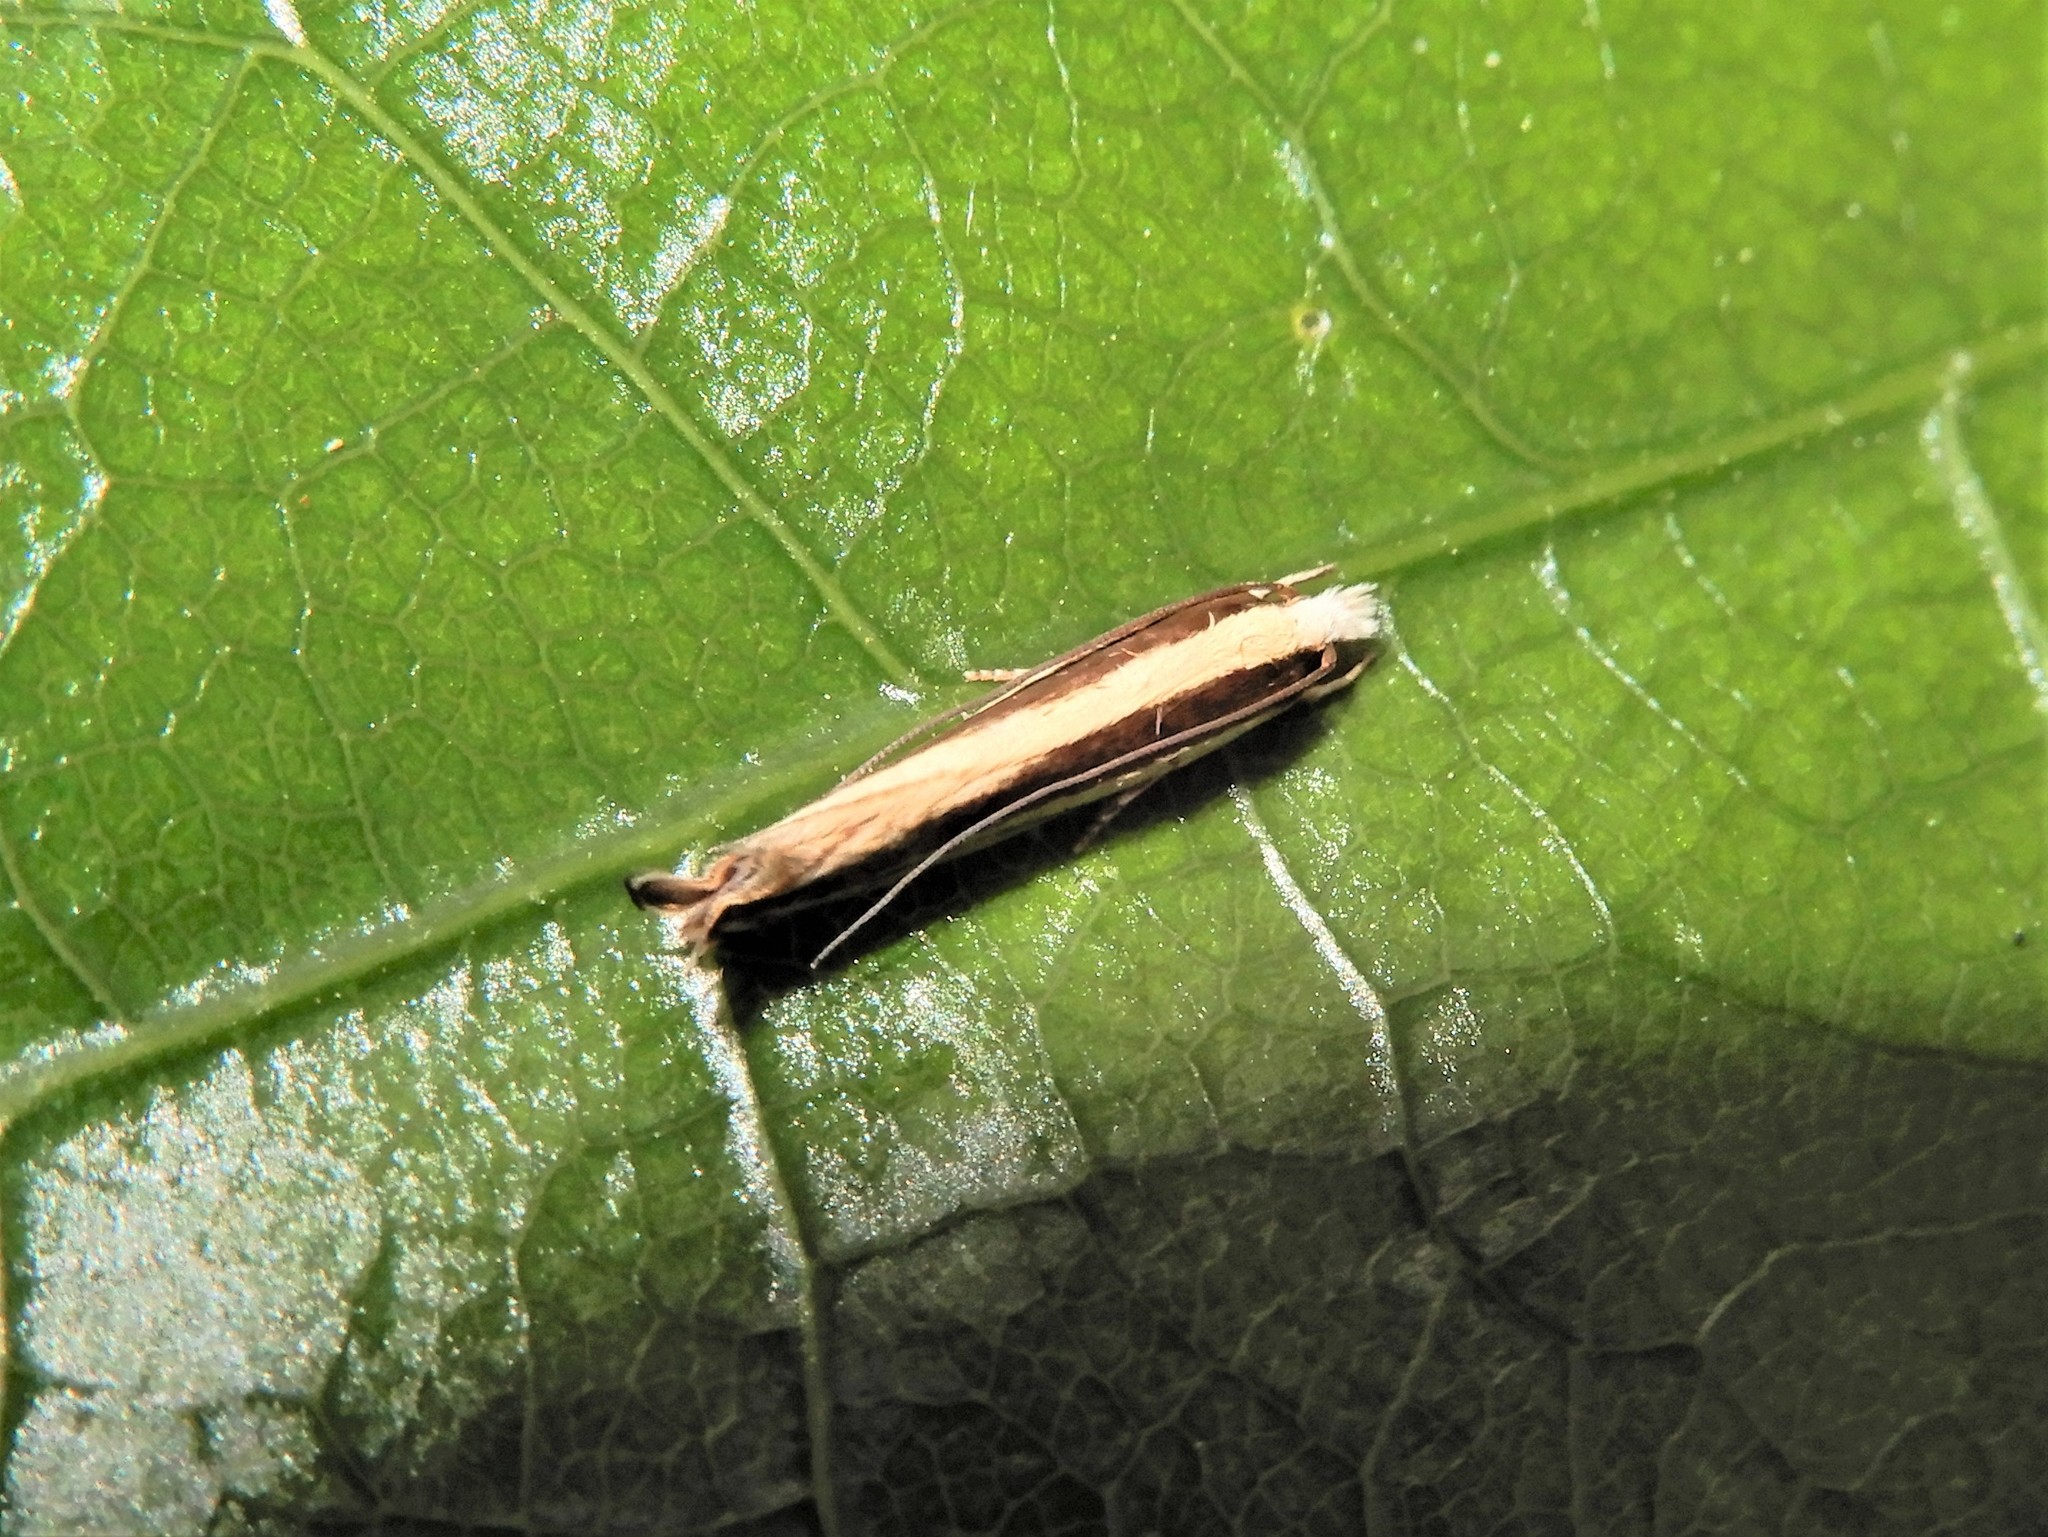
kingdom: Animalia
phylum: Arthropoda
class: Insecta
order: Lepidoptera
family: Tineidae
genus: Erechthias
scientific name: Erechthias stilbella
